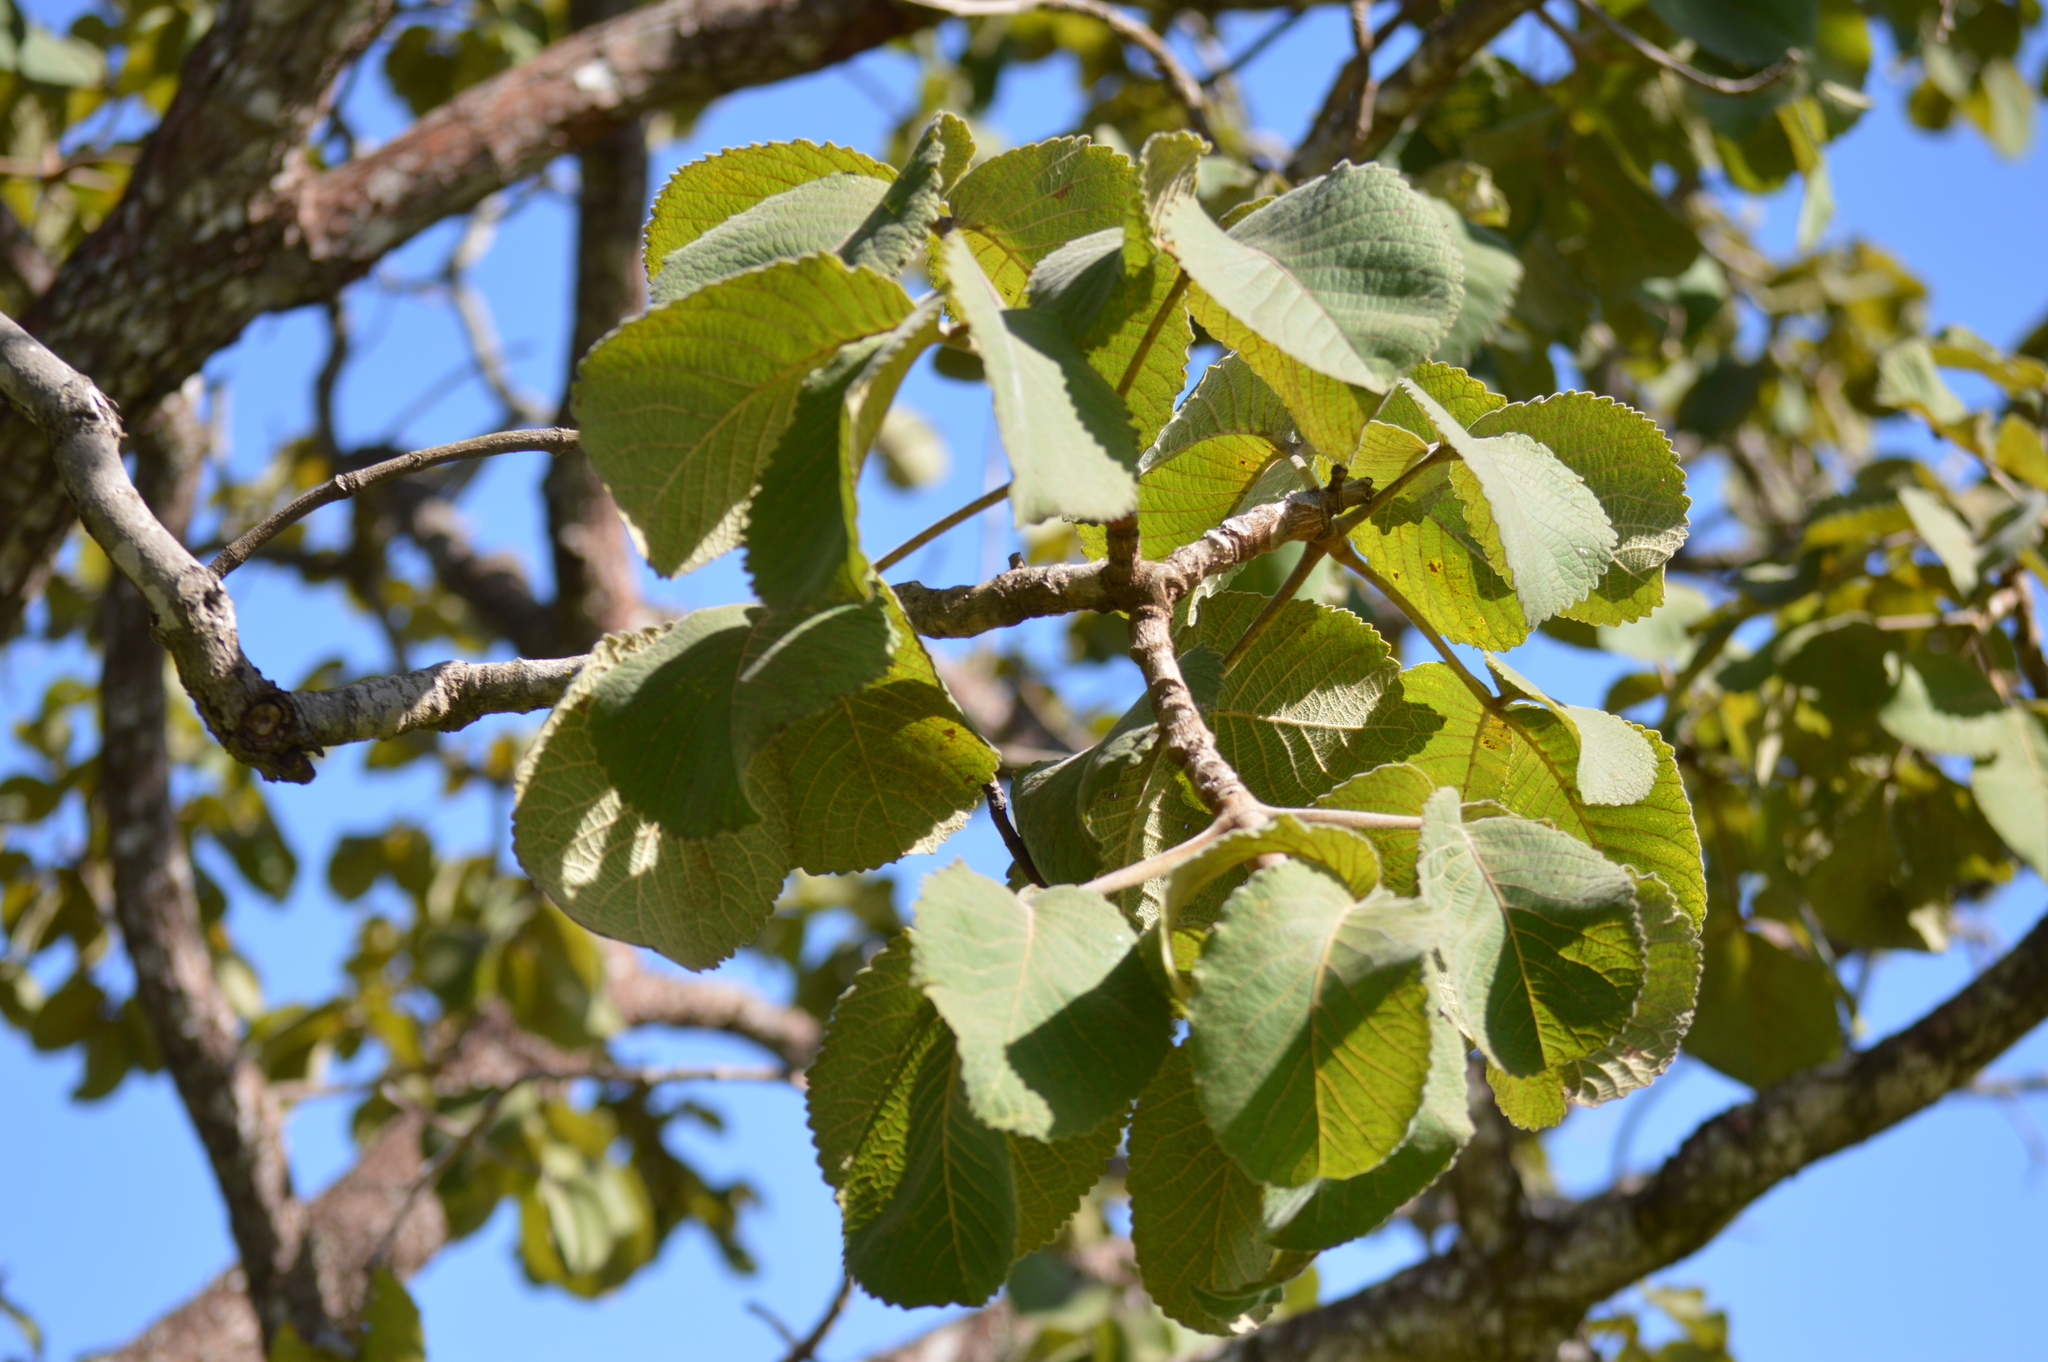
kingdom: Plantae
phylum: Tracheophyta
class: Magnoliopsida
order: Malpighiales
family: Caryocaraceae
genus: Caryocar
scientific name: Caryocar brasiliense
